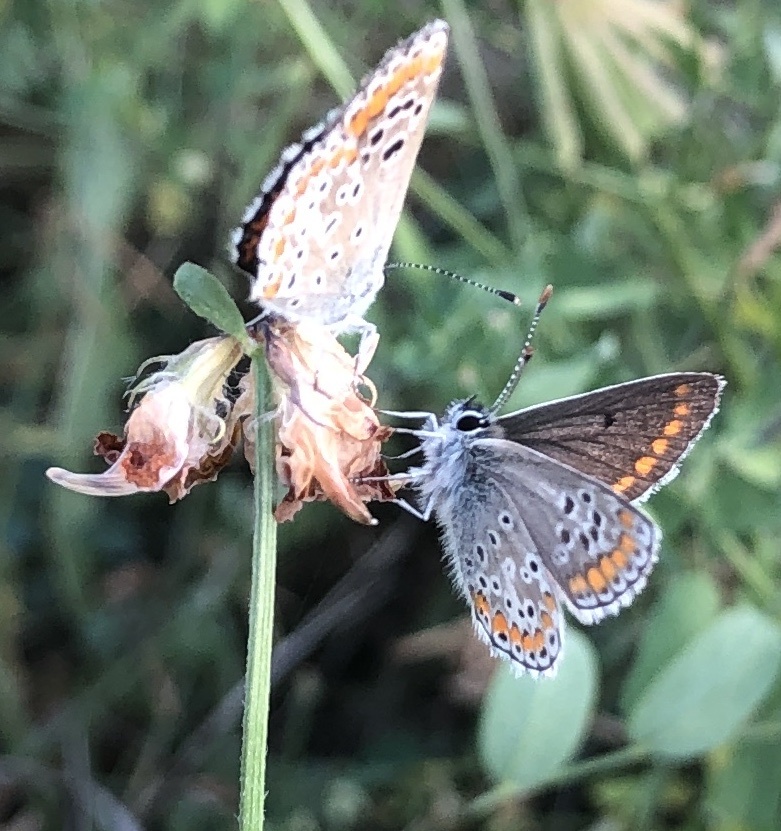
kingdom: Animalia
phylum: Arthropoda
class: Insecta
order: Lepidoptera
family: Lycaenidae
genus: Aricia
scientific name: Aricia agestis
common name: Brown argus
